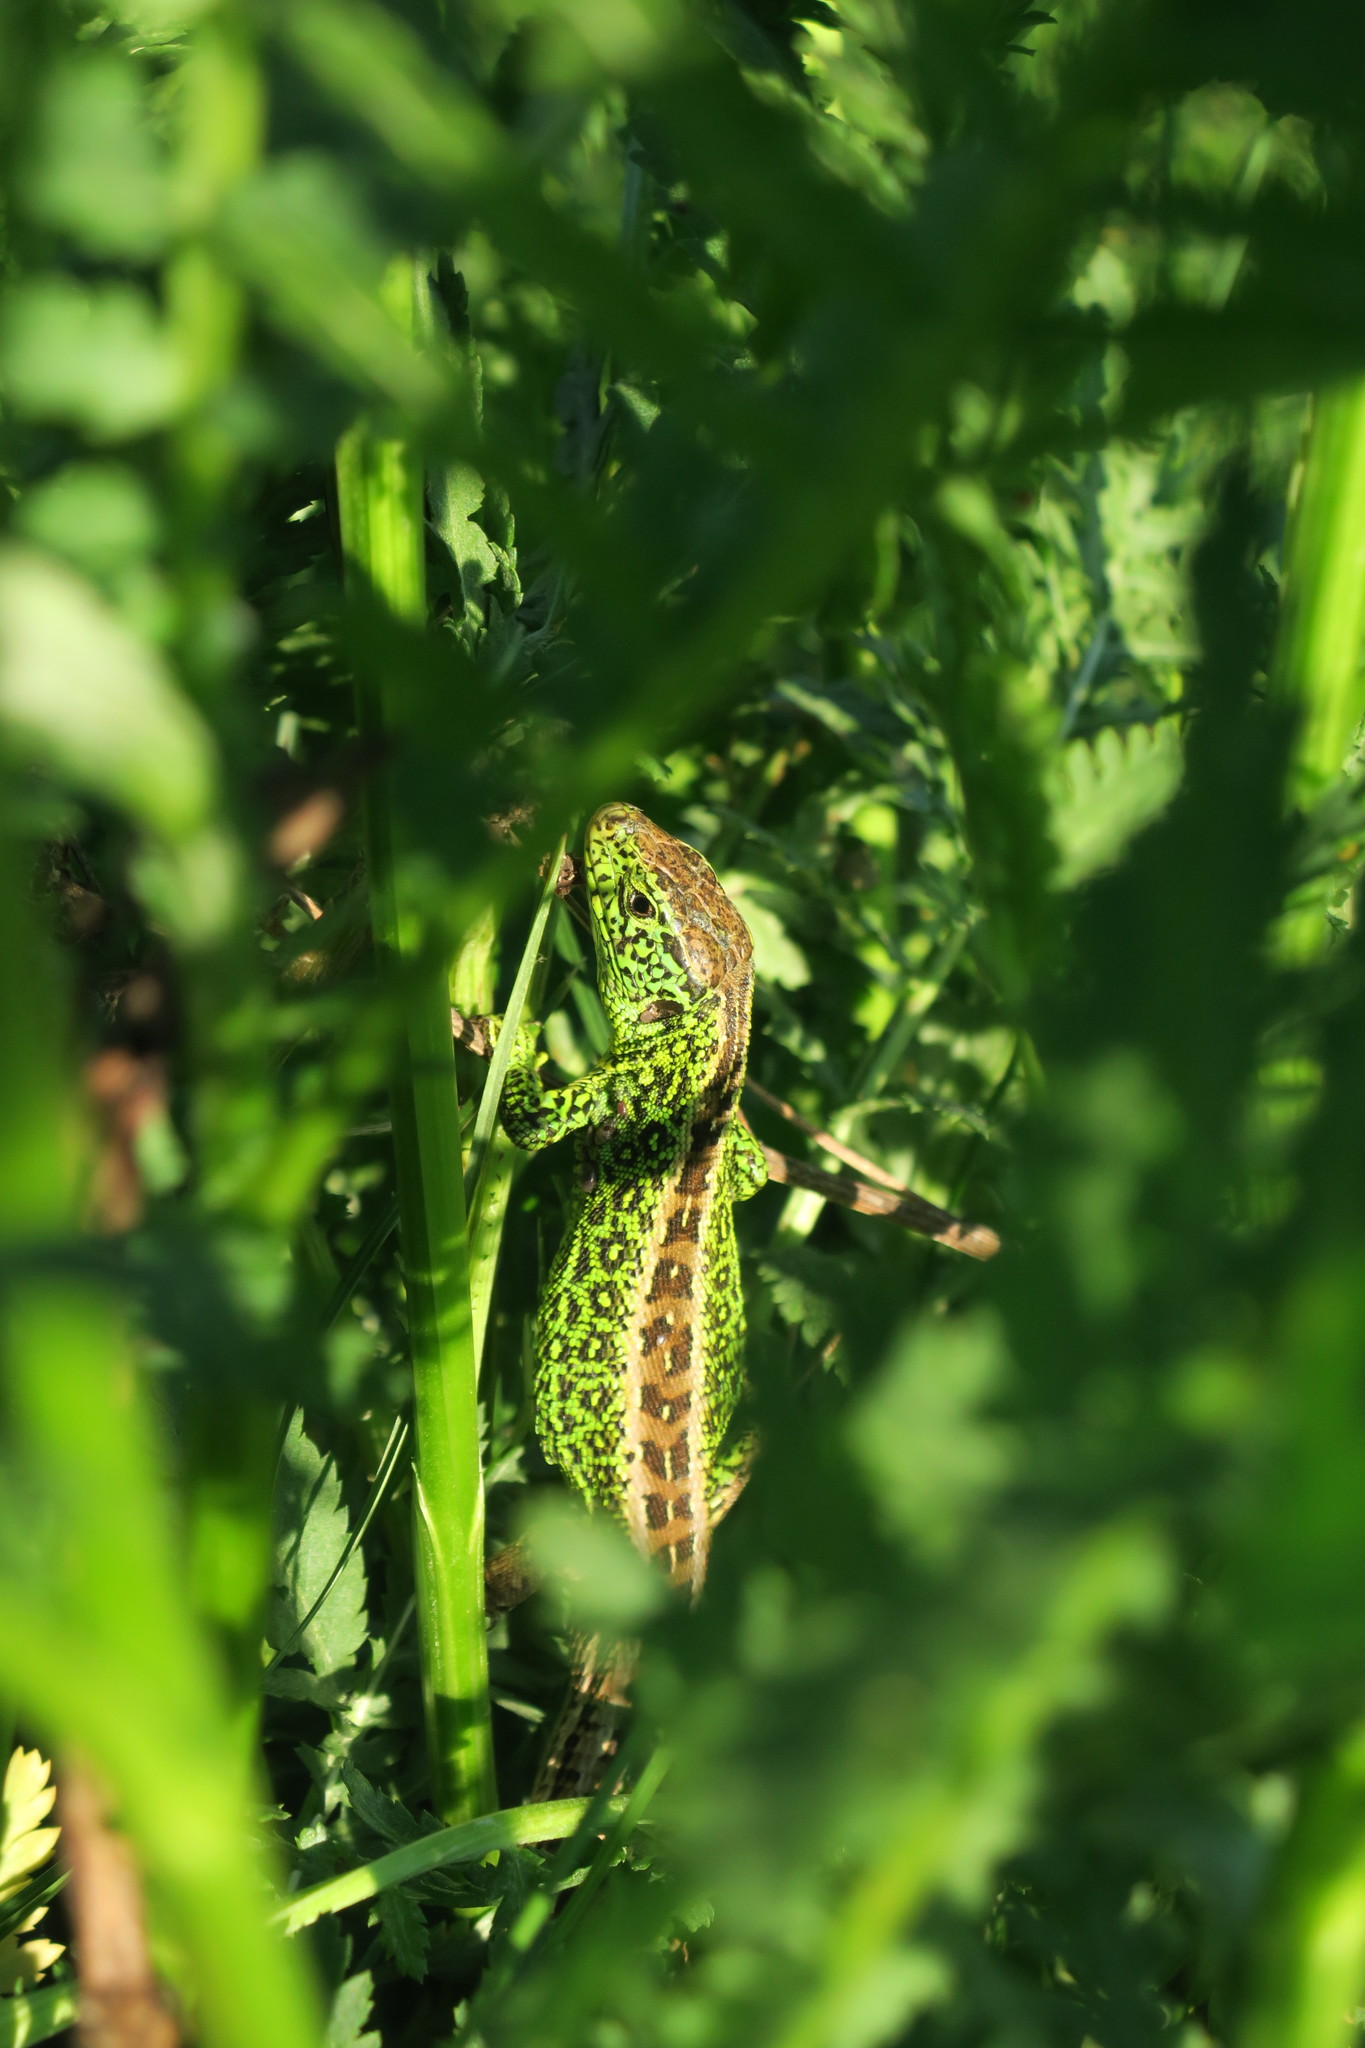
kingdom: Animalia
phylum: Chordata
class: Squamata
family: Lacertidae
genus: Lacerta
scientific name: Lacerta agilis
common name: Sand lizard
